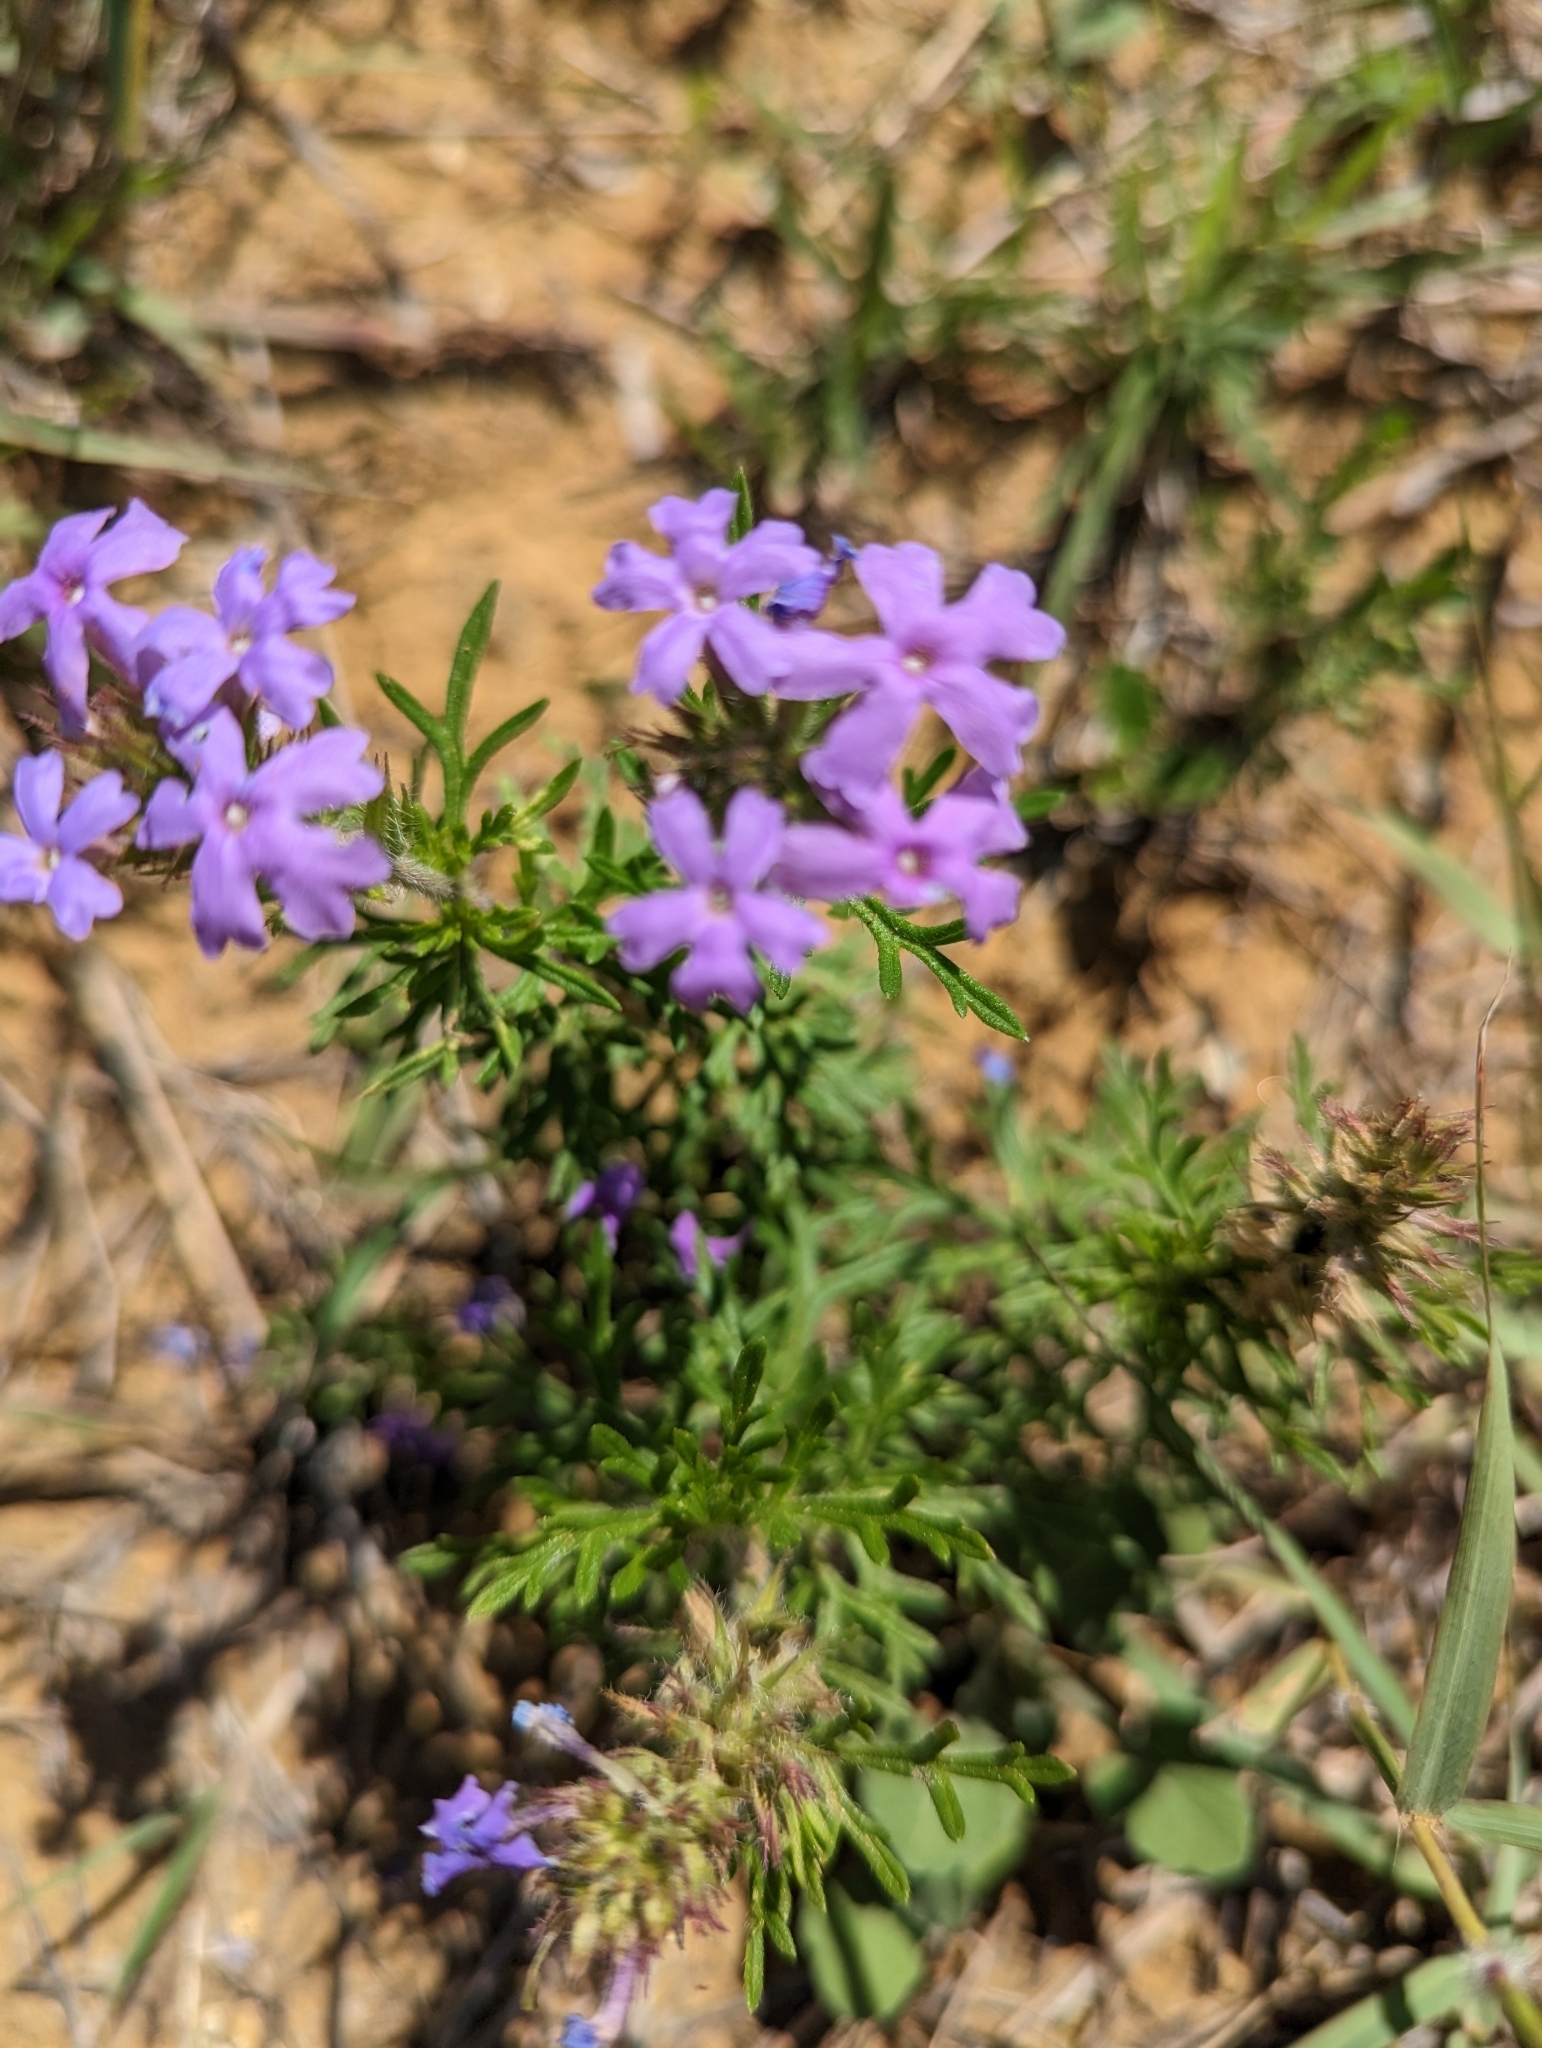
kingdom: Plantae
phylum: Tracheophyta
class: Magnoliopsida
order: Lamiales
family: Verbenaceae
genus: Verbena
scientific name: Verbena bipinnatifida
